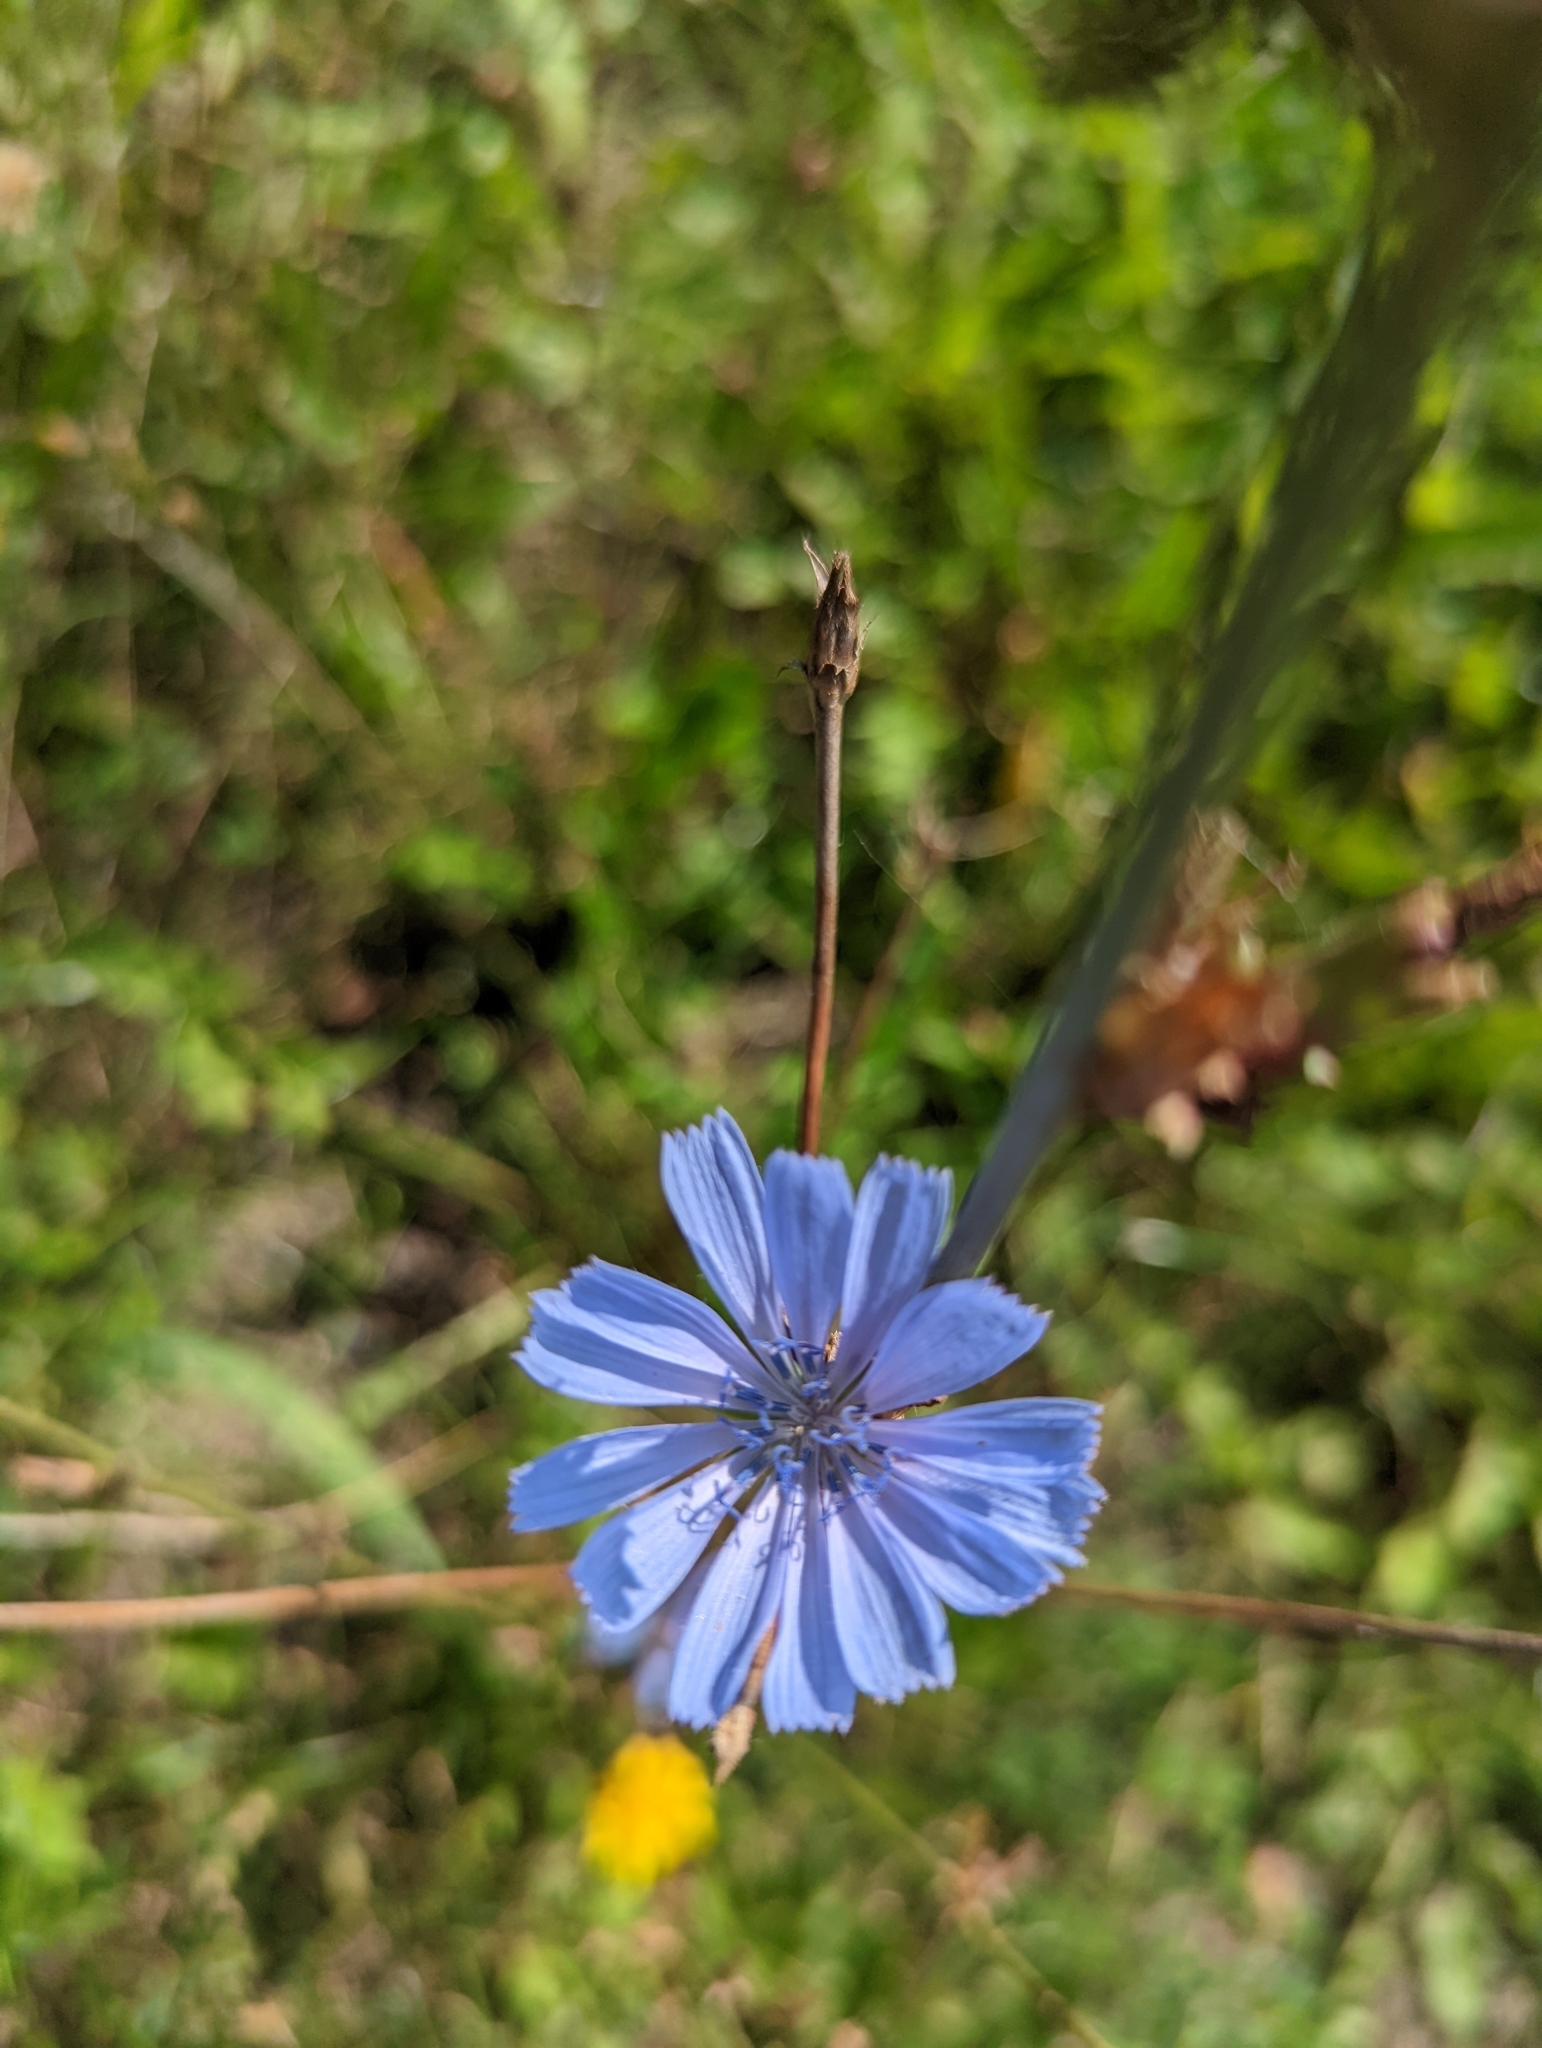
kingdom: Plantae
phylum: Tracheophyta
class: Magnoliopsida
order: Asterales
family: Asteraceae
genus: Cichorium
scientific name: Cichorium intybus
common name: Chicory
